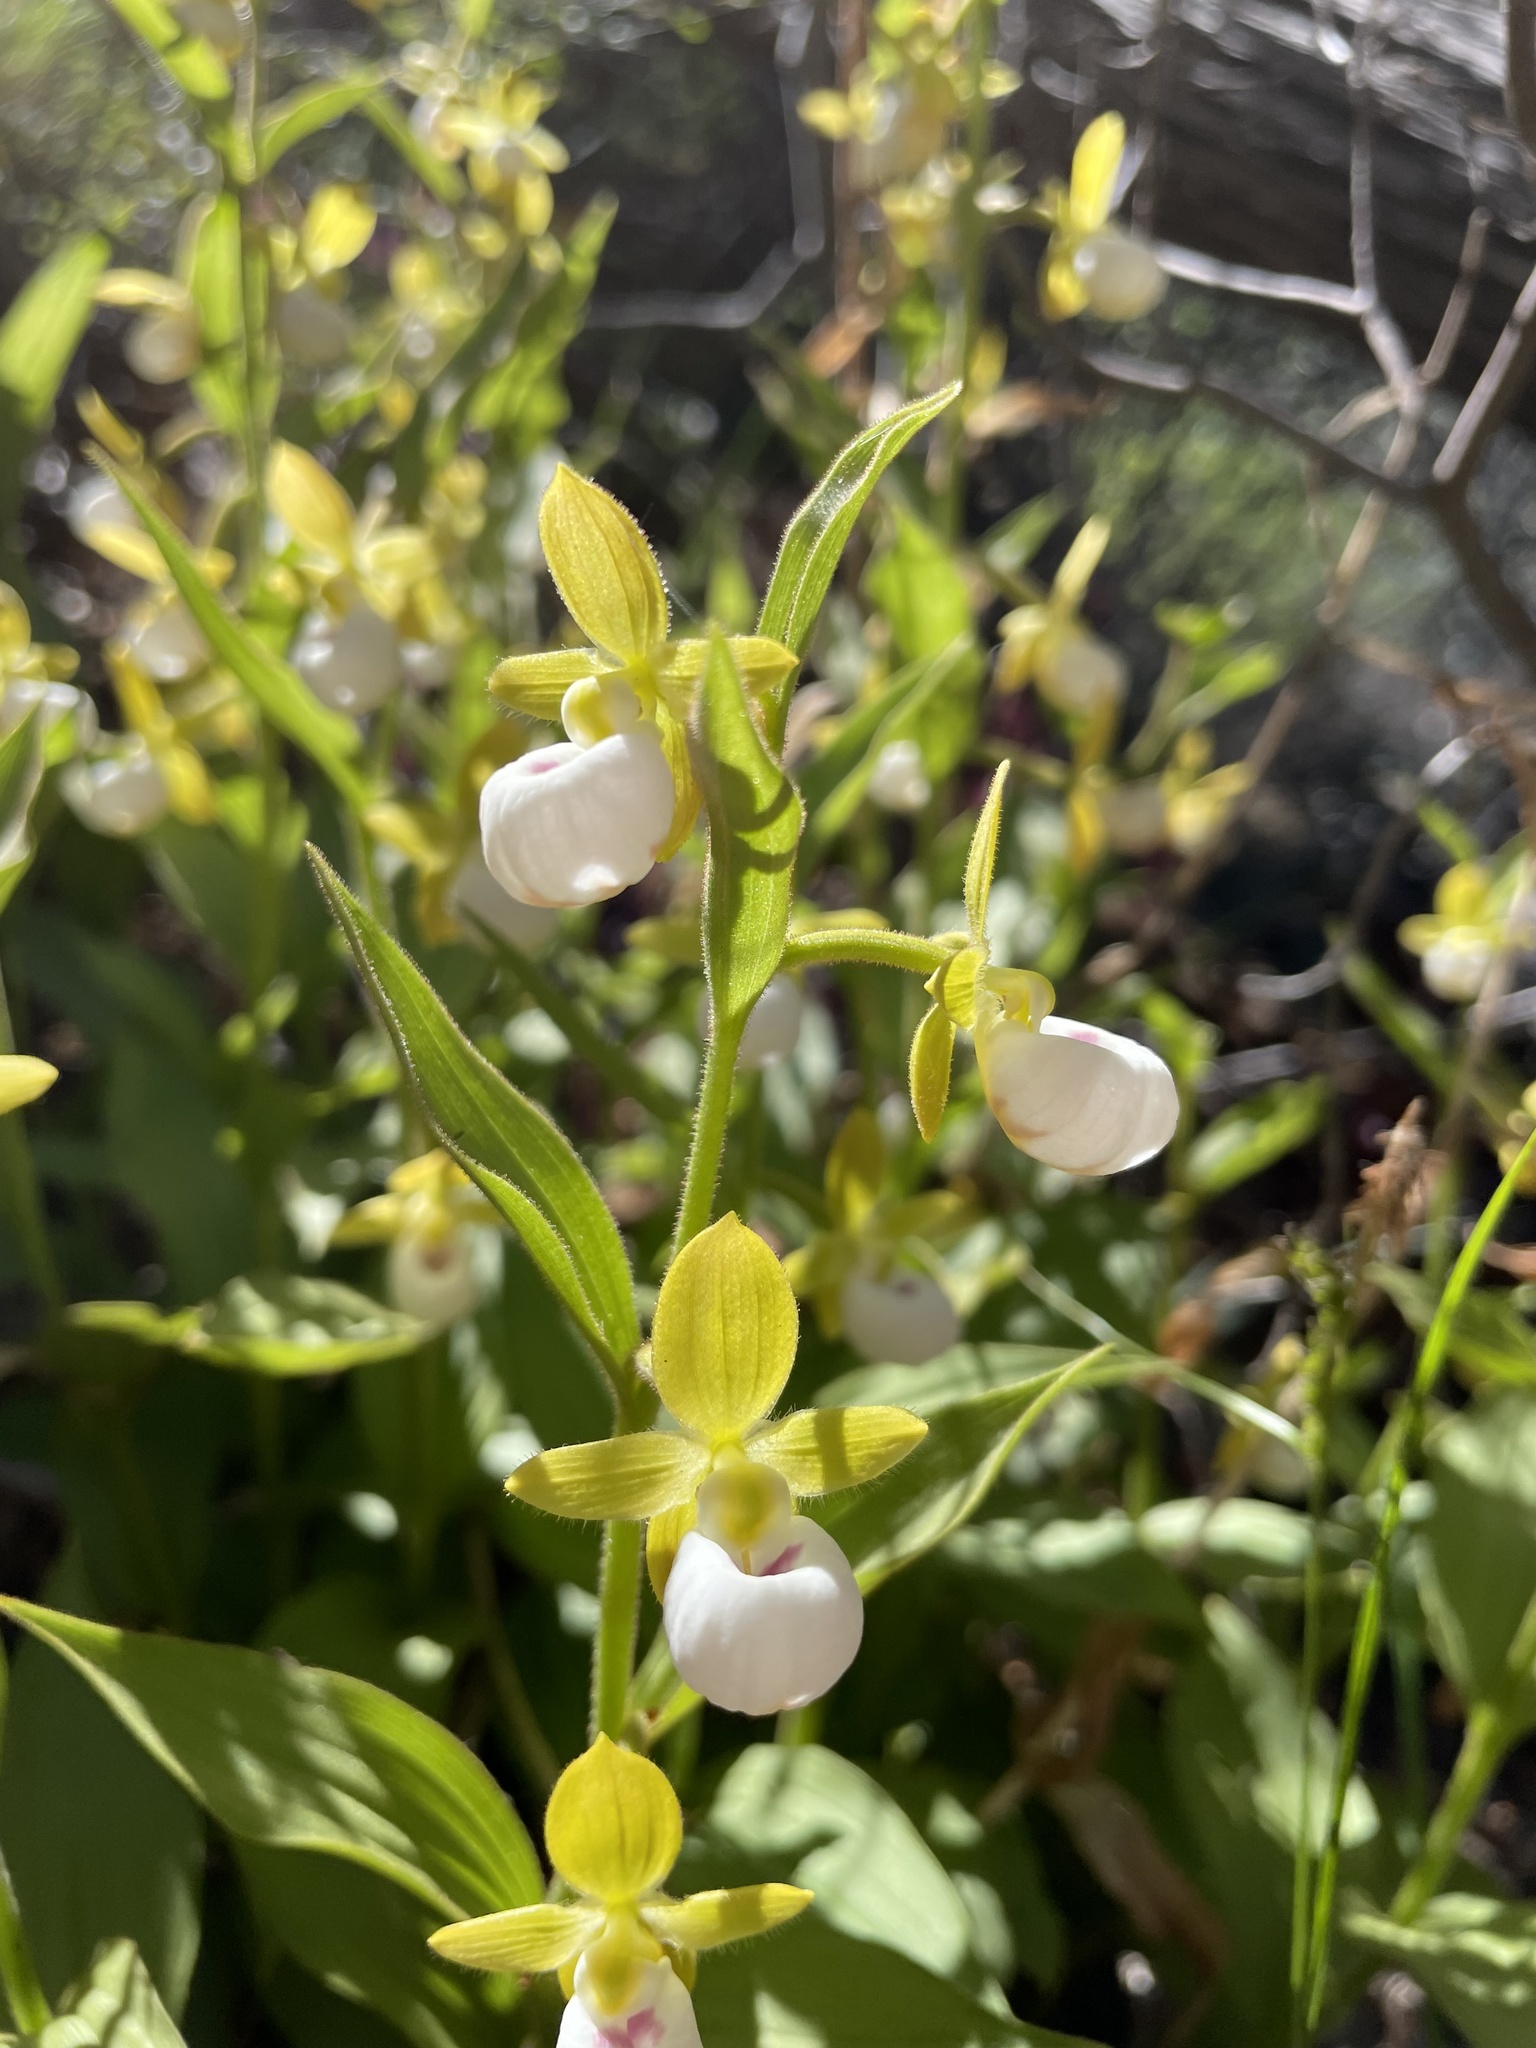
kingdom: Plantae
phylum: Tracheophyta
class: Liliopsida
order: Asparagales
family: Orchidaceae
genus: Cypripedium
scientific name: Cypripedium californicum
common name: California lady's slipper
